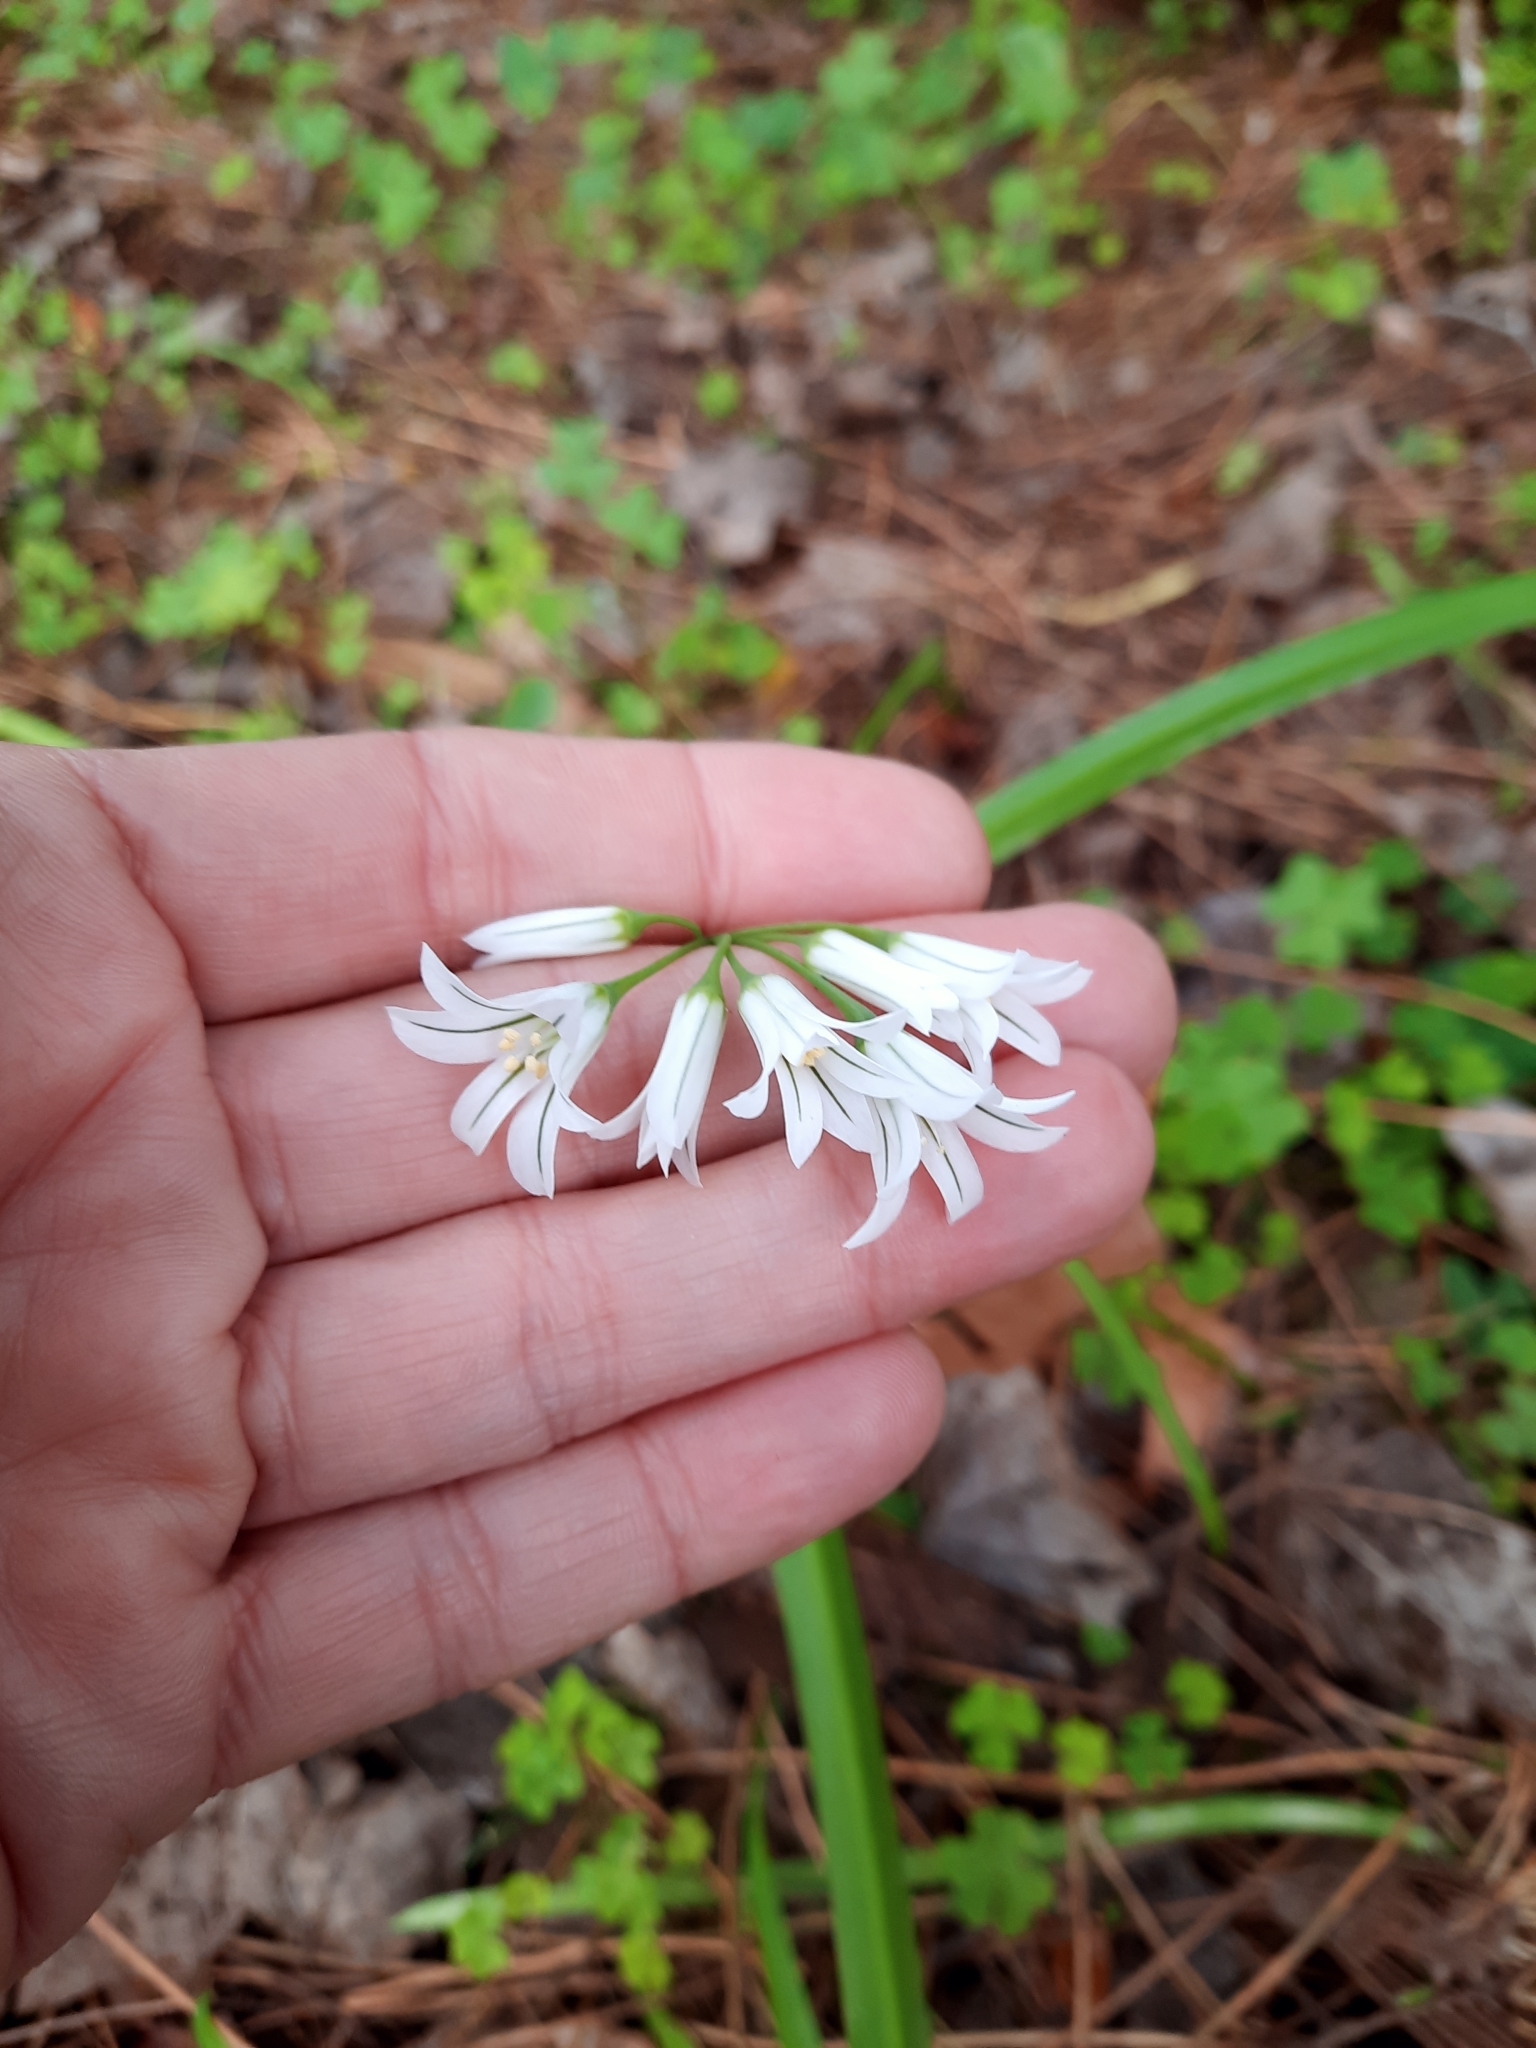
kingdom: Plantae
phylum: Tracheophyta
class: Liliopsida
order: Asparagales
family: Amaryllidaceae
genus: Allium
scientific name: Allium triquetrum
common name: Three-cornered garlic
